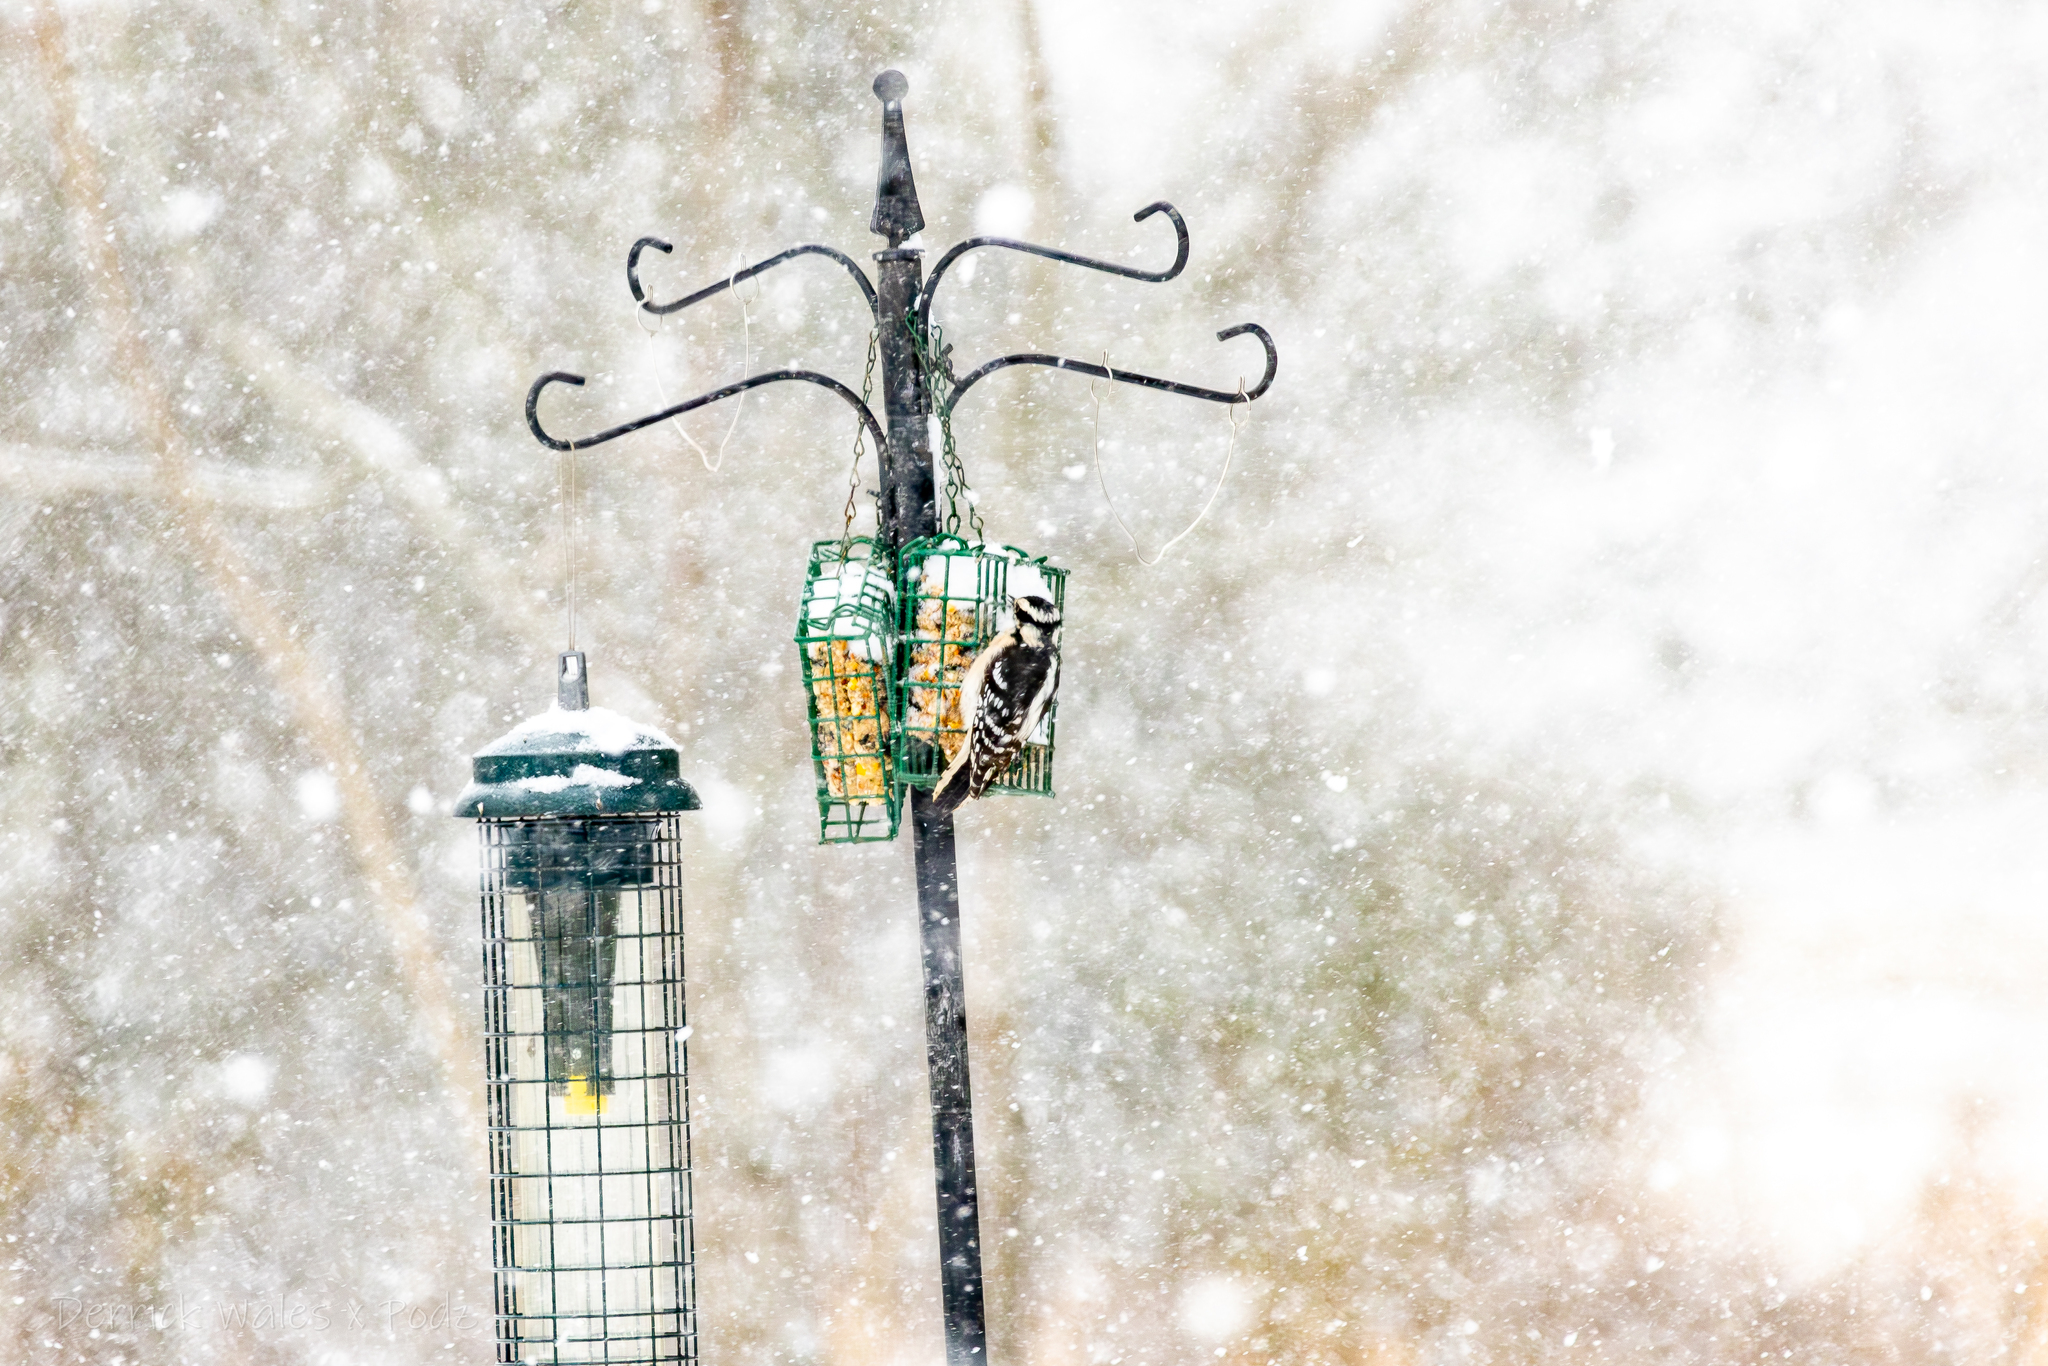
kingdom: Animalia
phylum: Chordata
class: Aves
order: Piciformes
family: Picidae
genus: Dryobates
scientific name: Dryobates pubescens
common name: Downy woodpecker
